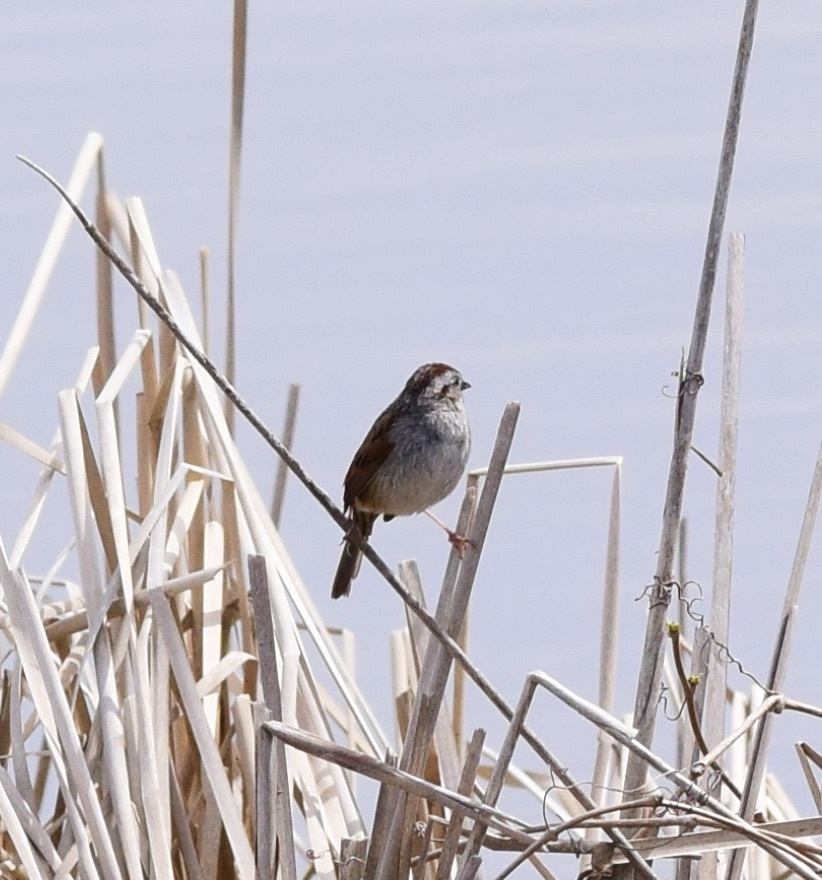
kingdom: Animalia
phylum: Chordata
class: Aves
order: Passeriformes
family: Passerellidae
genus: Melospiza
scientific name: Melospiza georgiana
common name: Swamp sparrow
